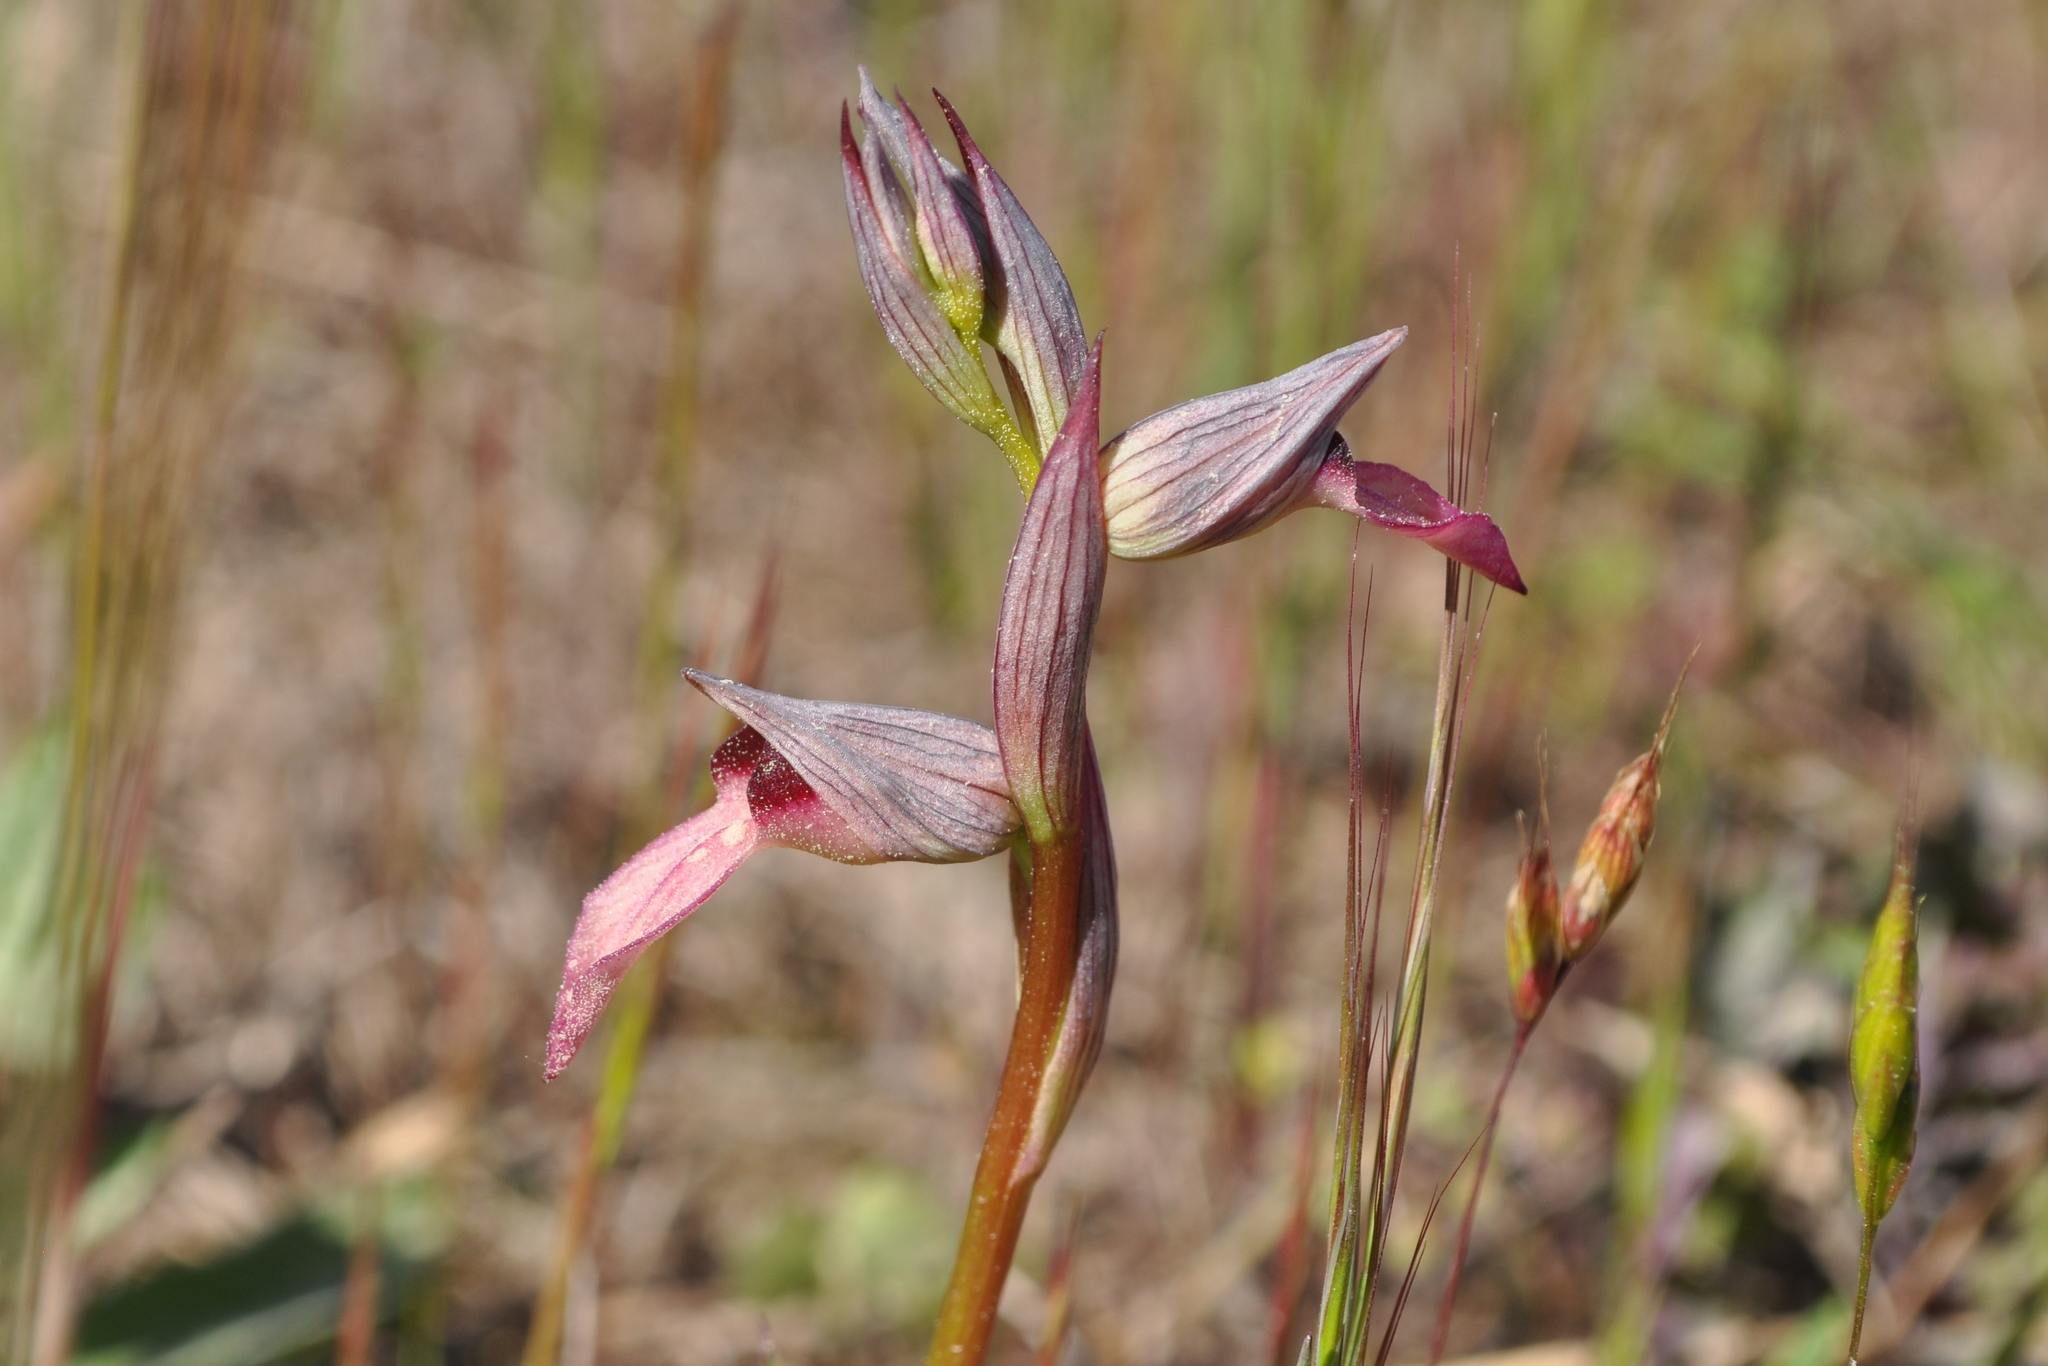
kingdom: Plantae
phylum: Tracheophyta
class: Liliopsida
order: Asparagales
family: Orchidaceae
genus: Serapias
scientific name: Serapias lingua
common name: Tongue-orchid
